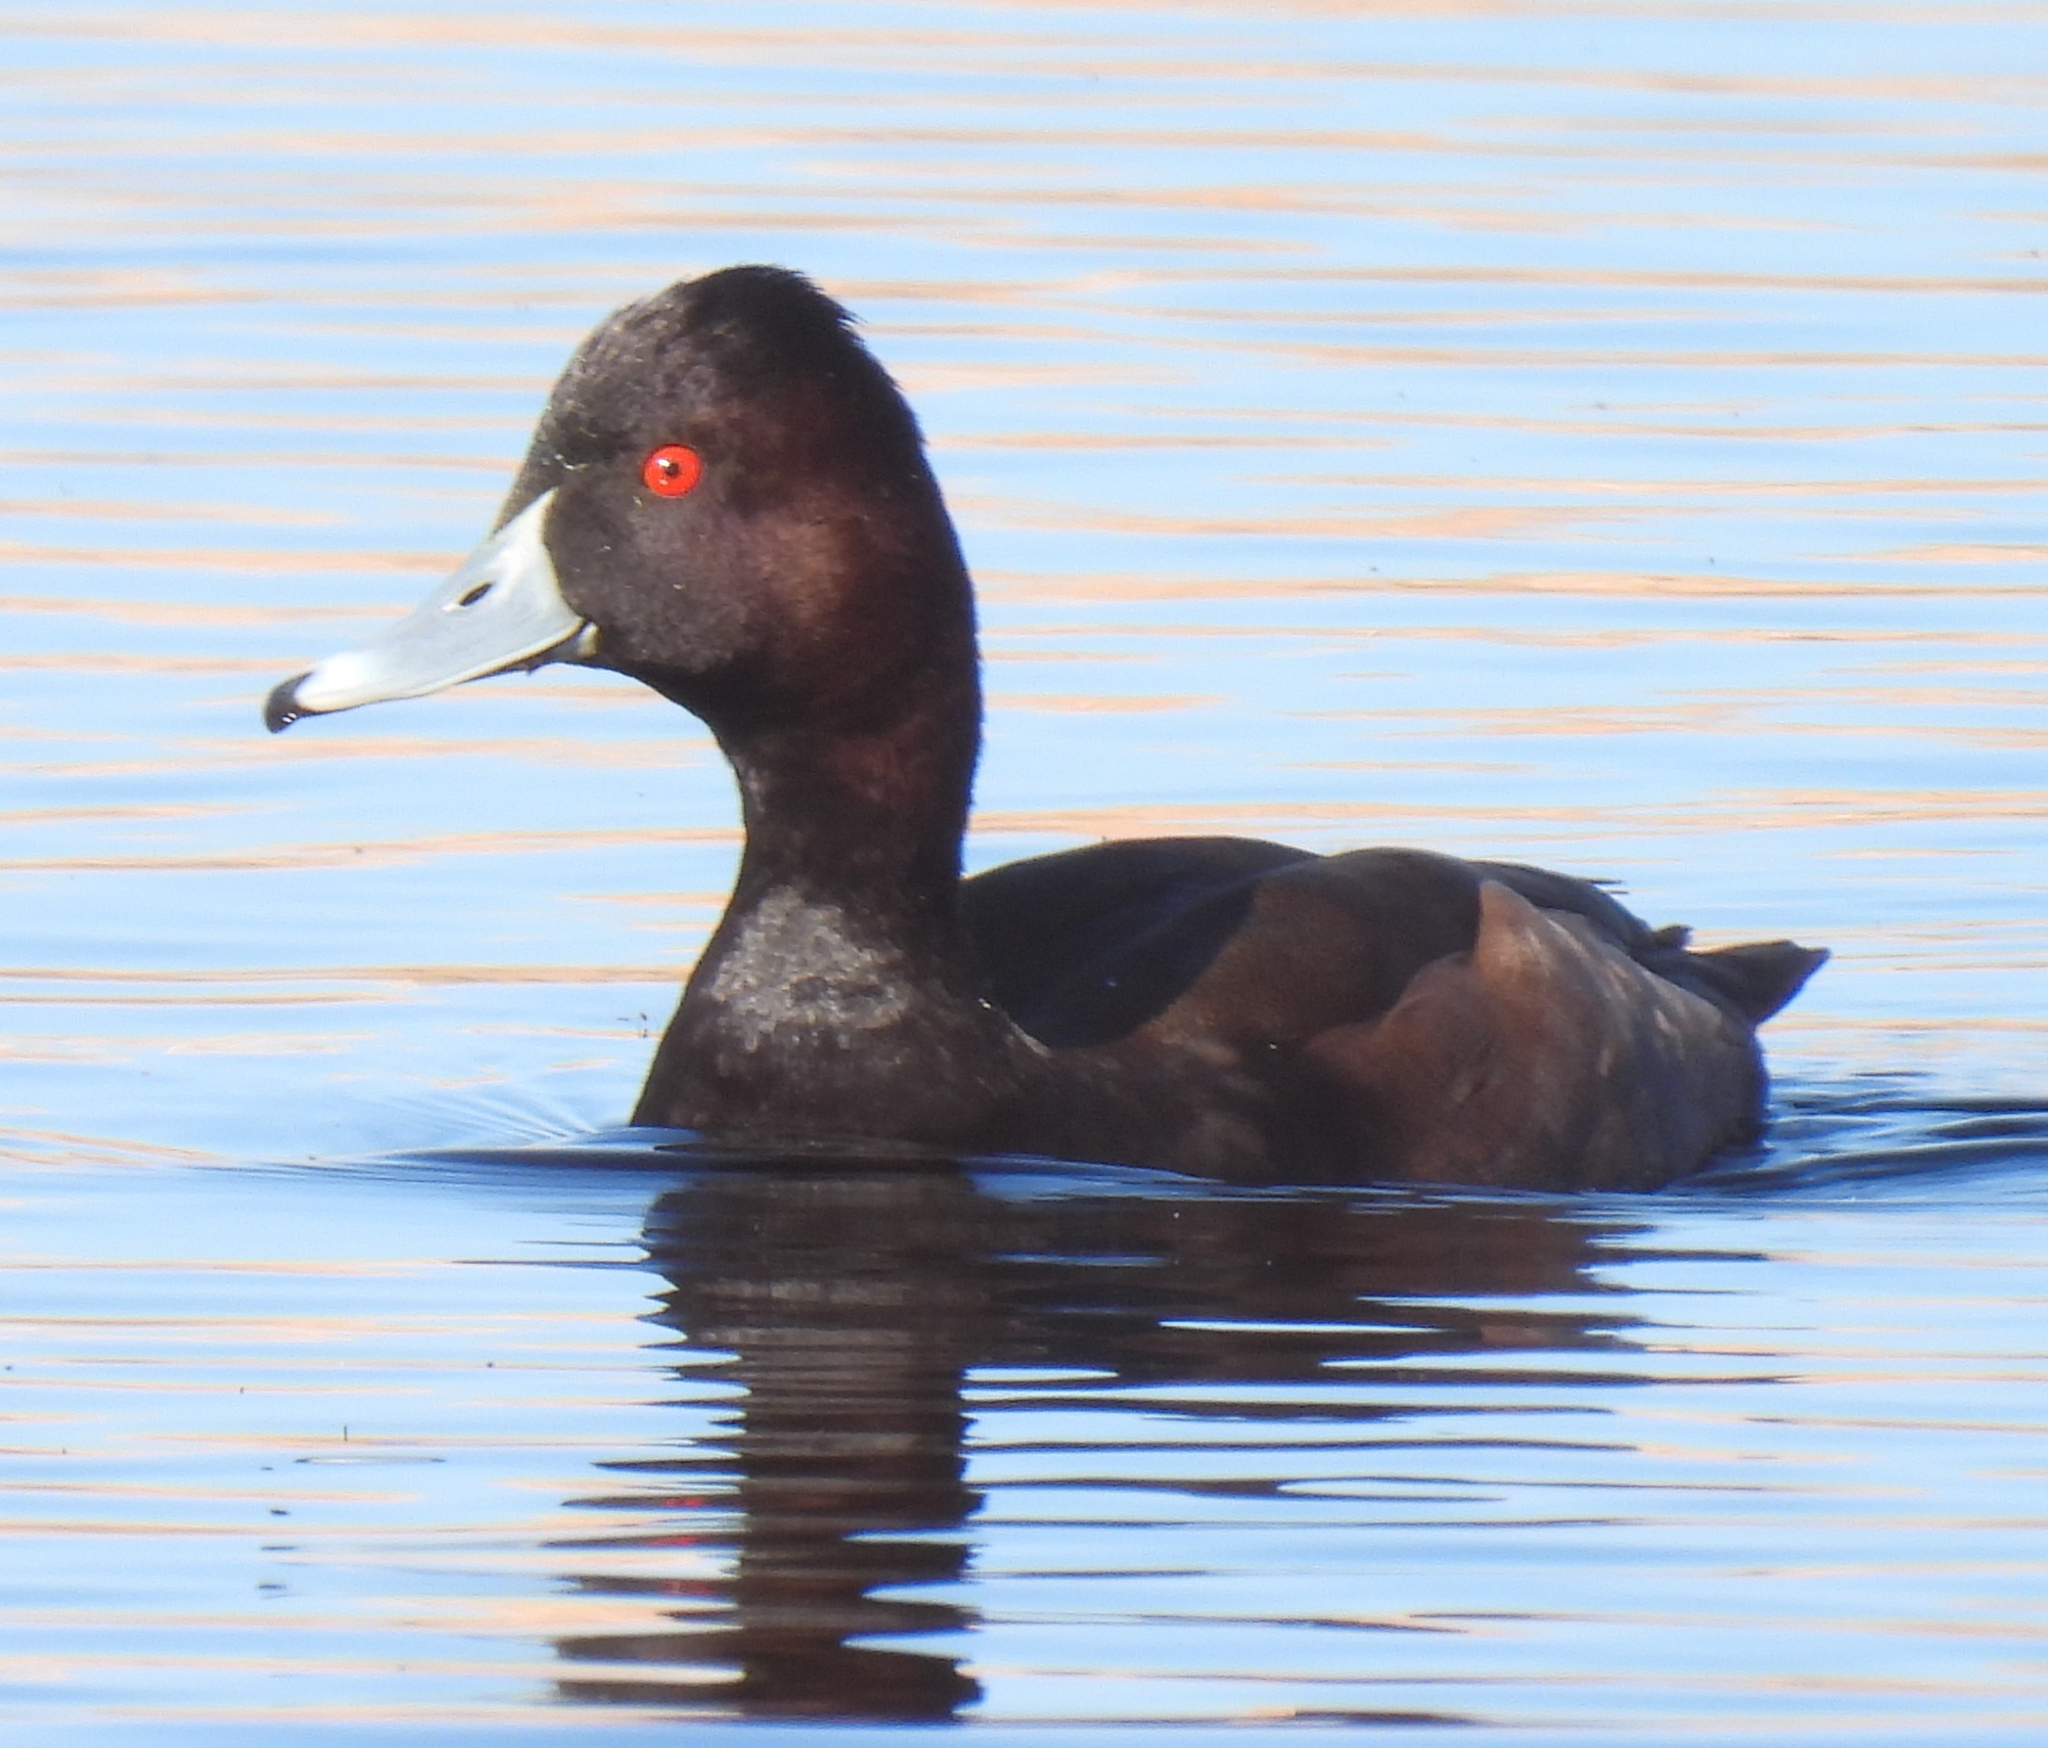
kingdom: Animalia
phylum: Chordata
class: Aves
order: Anseriformes
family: Anatidae
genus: Netta
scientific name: Netta erythrophthalma
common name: Southern pochard
